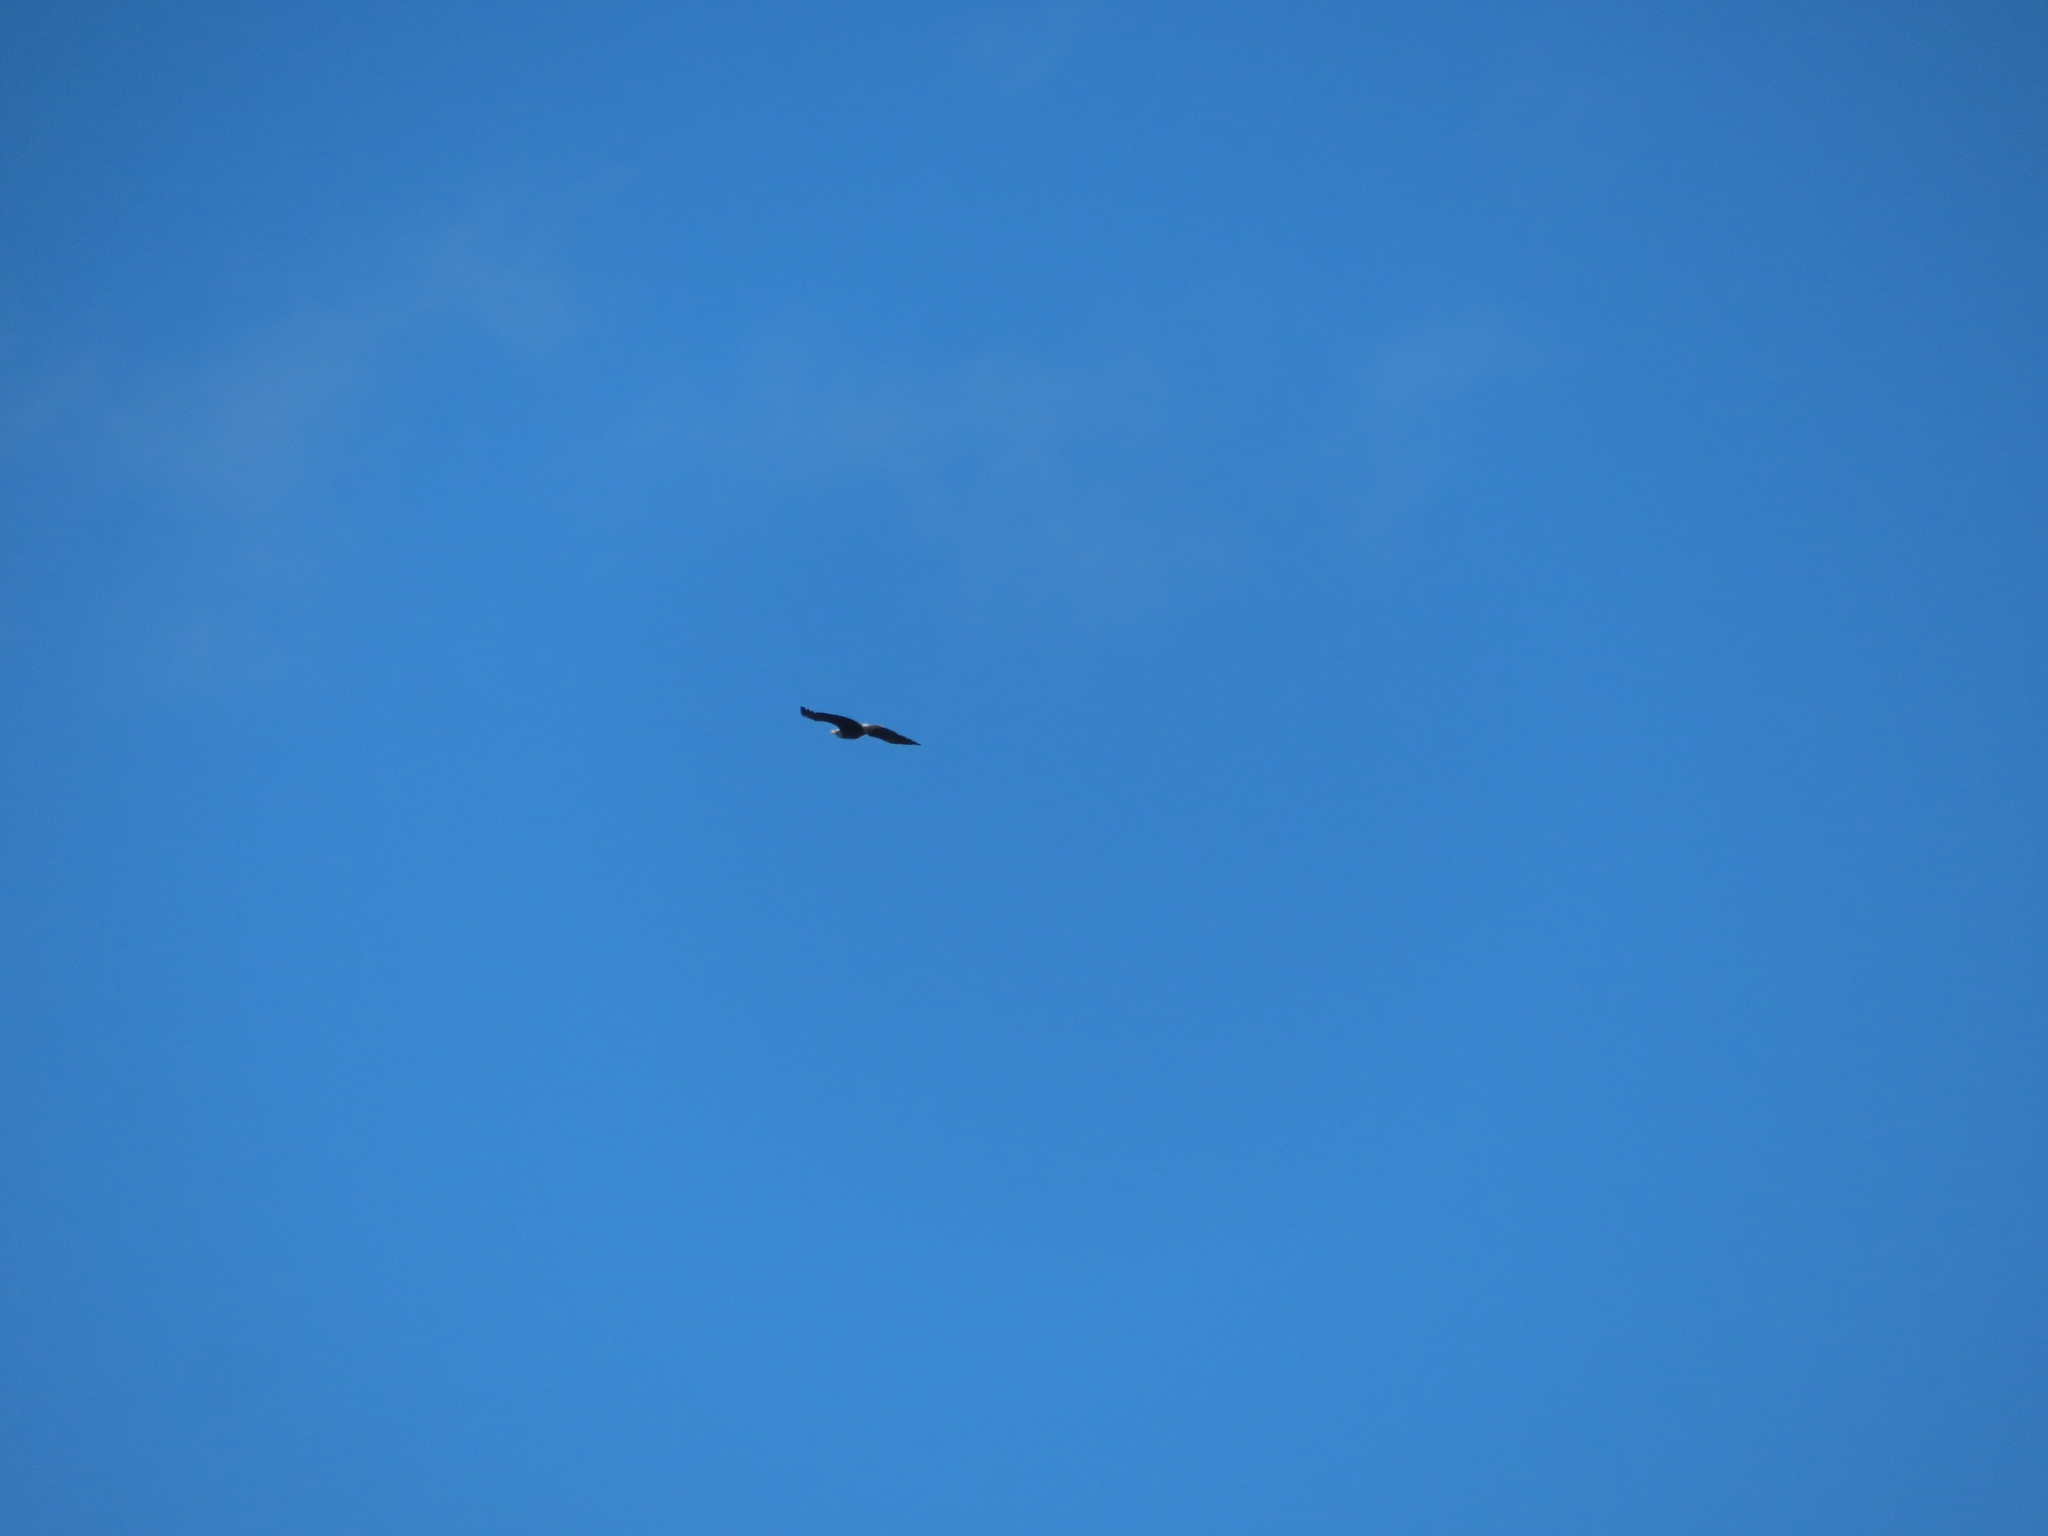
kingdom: Animalia
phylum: Chordata
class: Aves
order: Accipitriformes
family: Accipitridae
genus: Haliaeetus
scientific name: Haliaeetus leucocephalus
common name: Bald eagle
